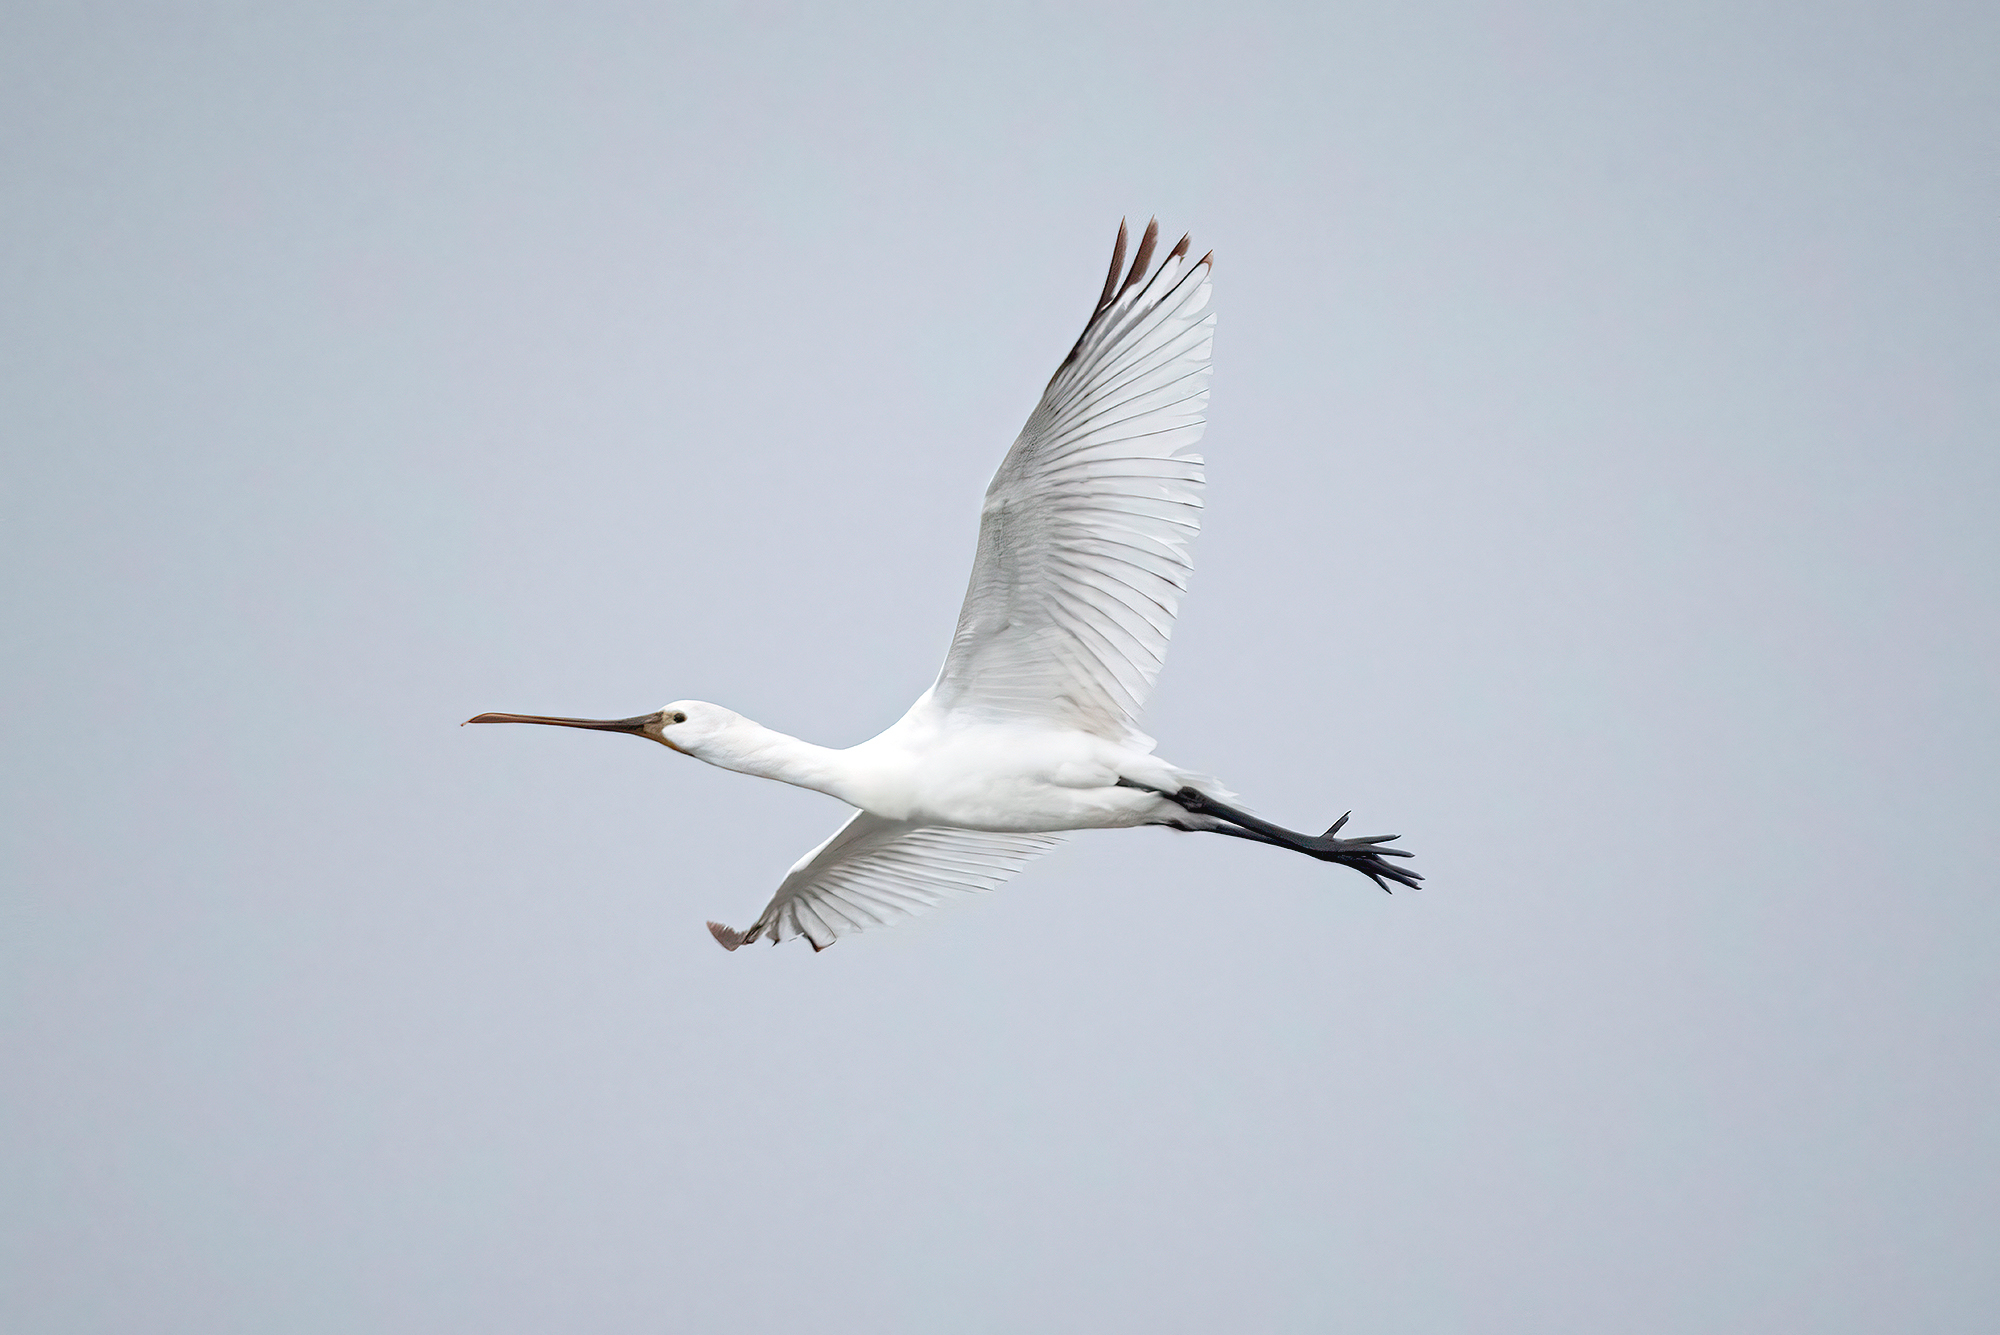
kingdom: Animalia
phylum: Chordata
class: Aves
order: Pelecaniformes
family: Threskiornithidae
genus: Platalea
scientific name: Platalea leucorodia
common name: Eurasian spoonbill
